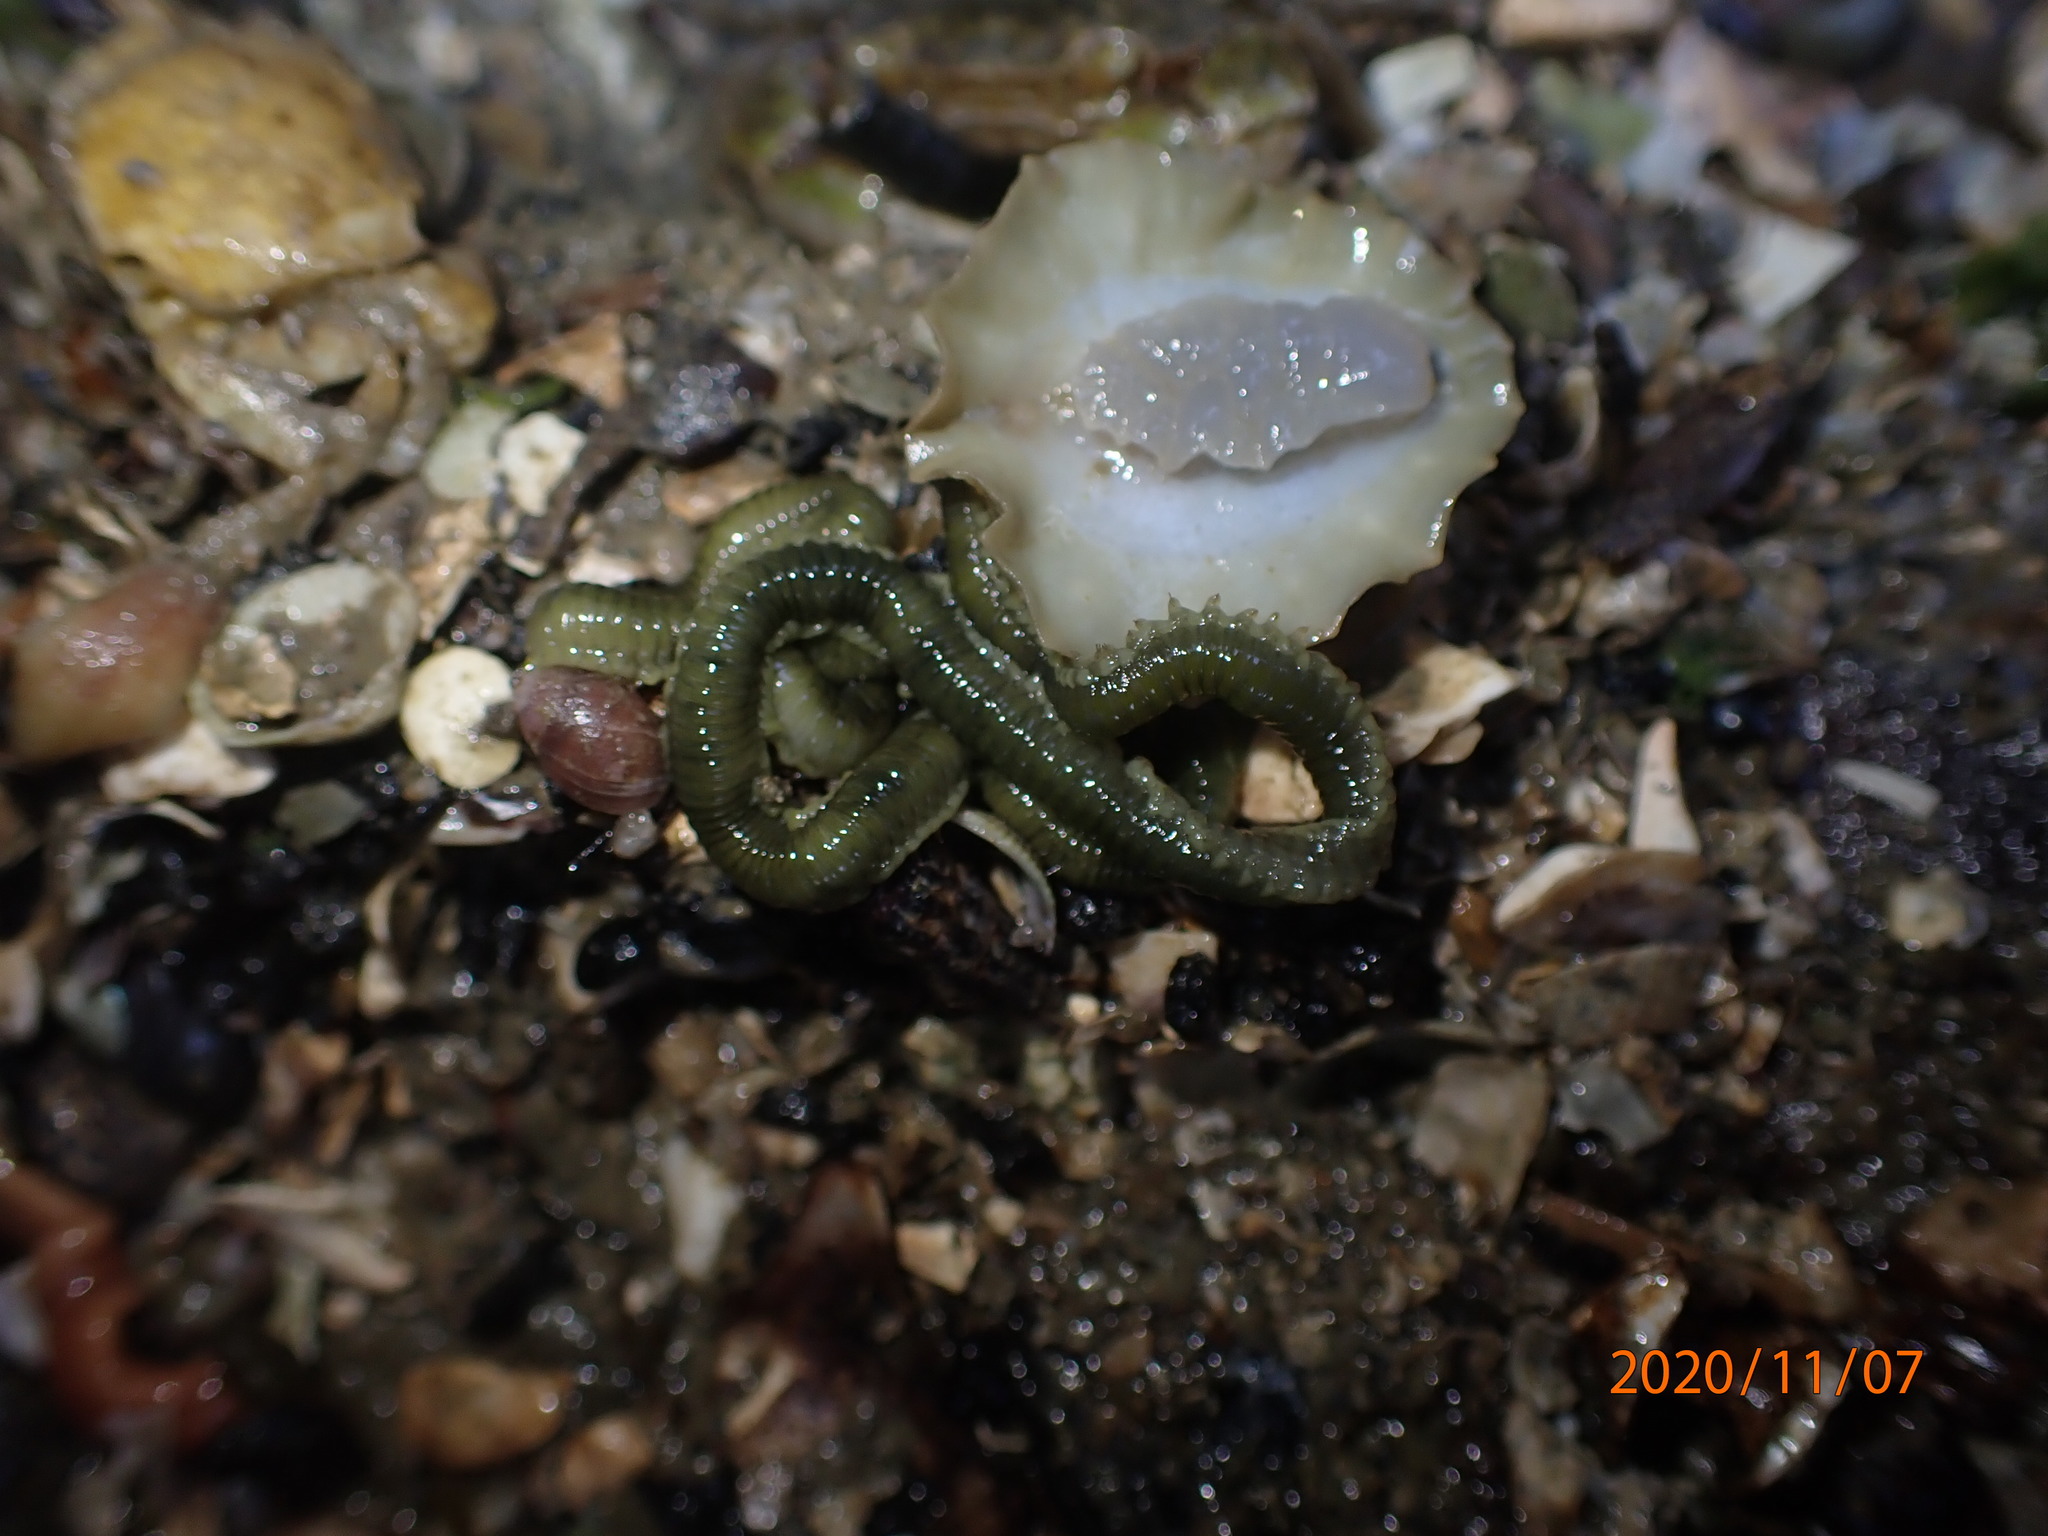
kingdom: Animalia
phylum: Annelida
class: Polychaeta
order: Phyllodocida
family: Phyllodocidae
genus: Eulalia
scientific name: Eulalia microphylla
